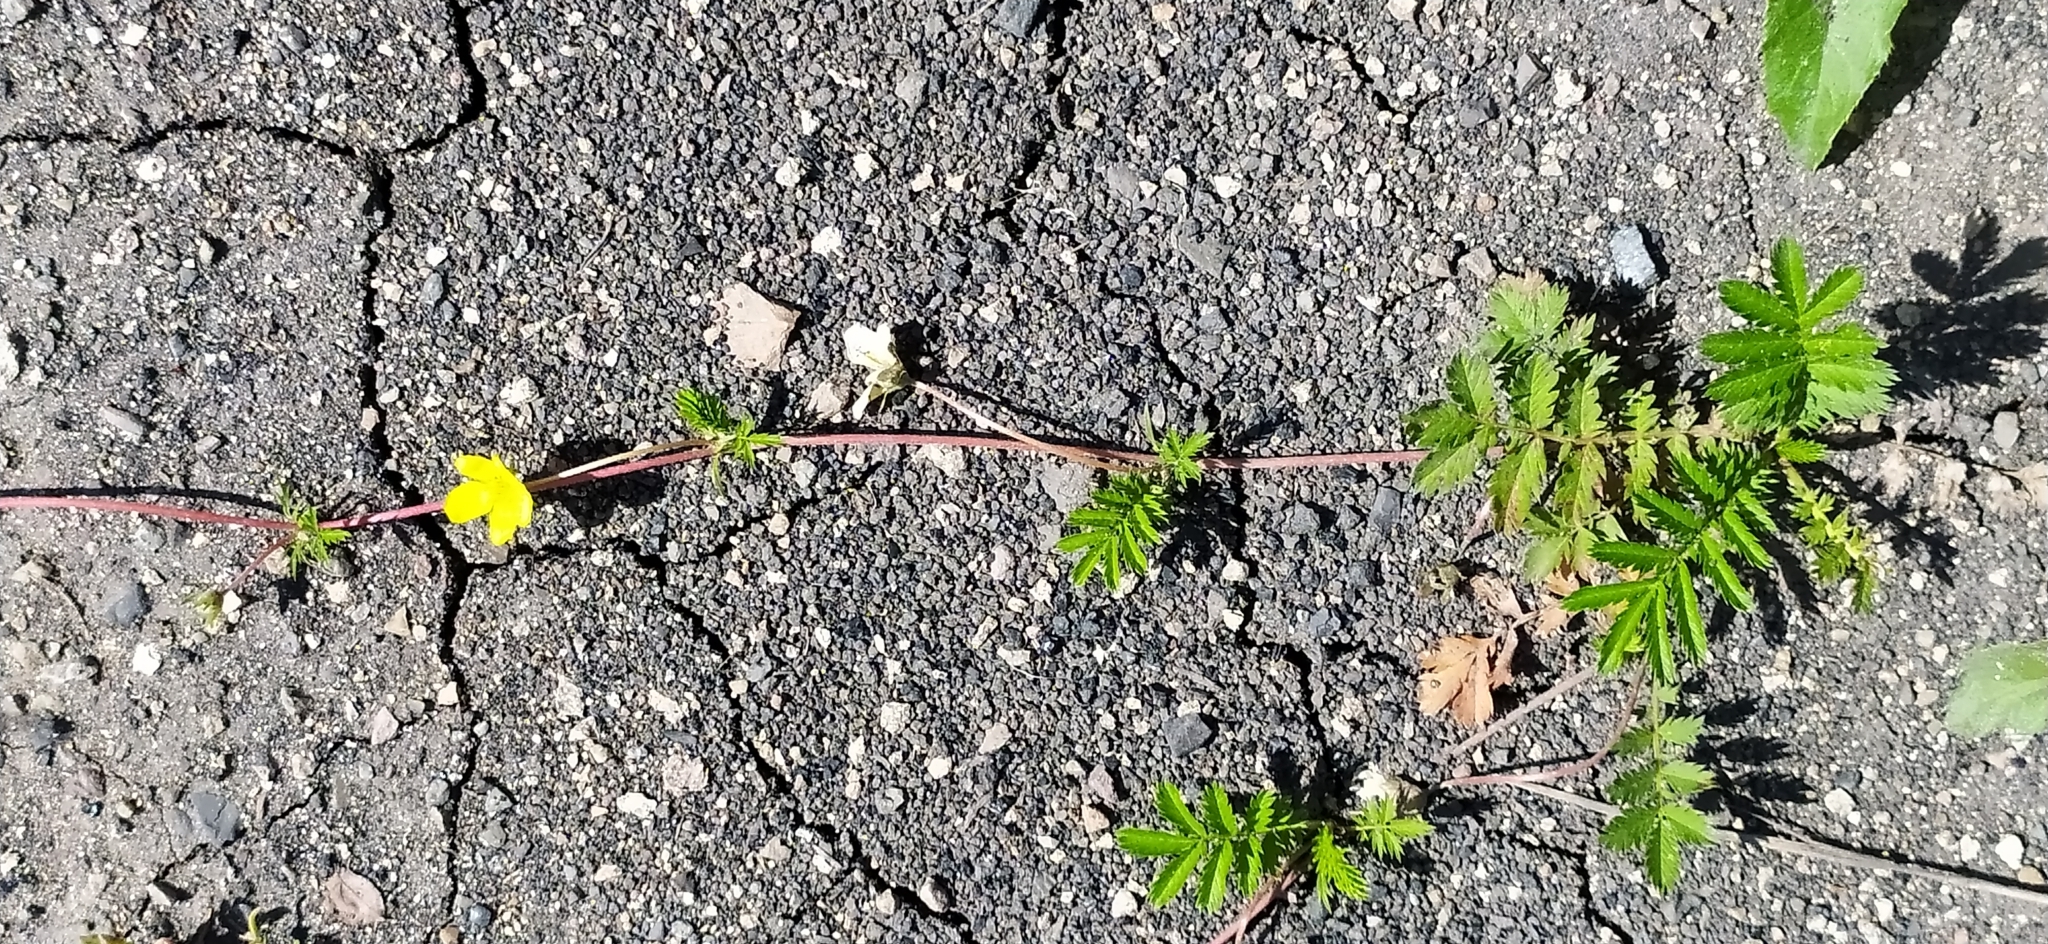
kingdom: Plantae
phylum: Tracheophyta
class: Magnoliopsida
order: Rosales
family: Rosaceae
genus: Argentina
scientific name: Argentina anserina
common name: Common silverweed
